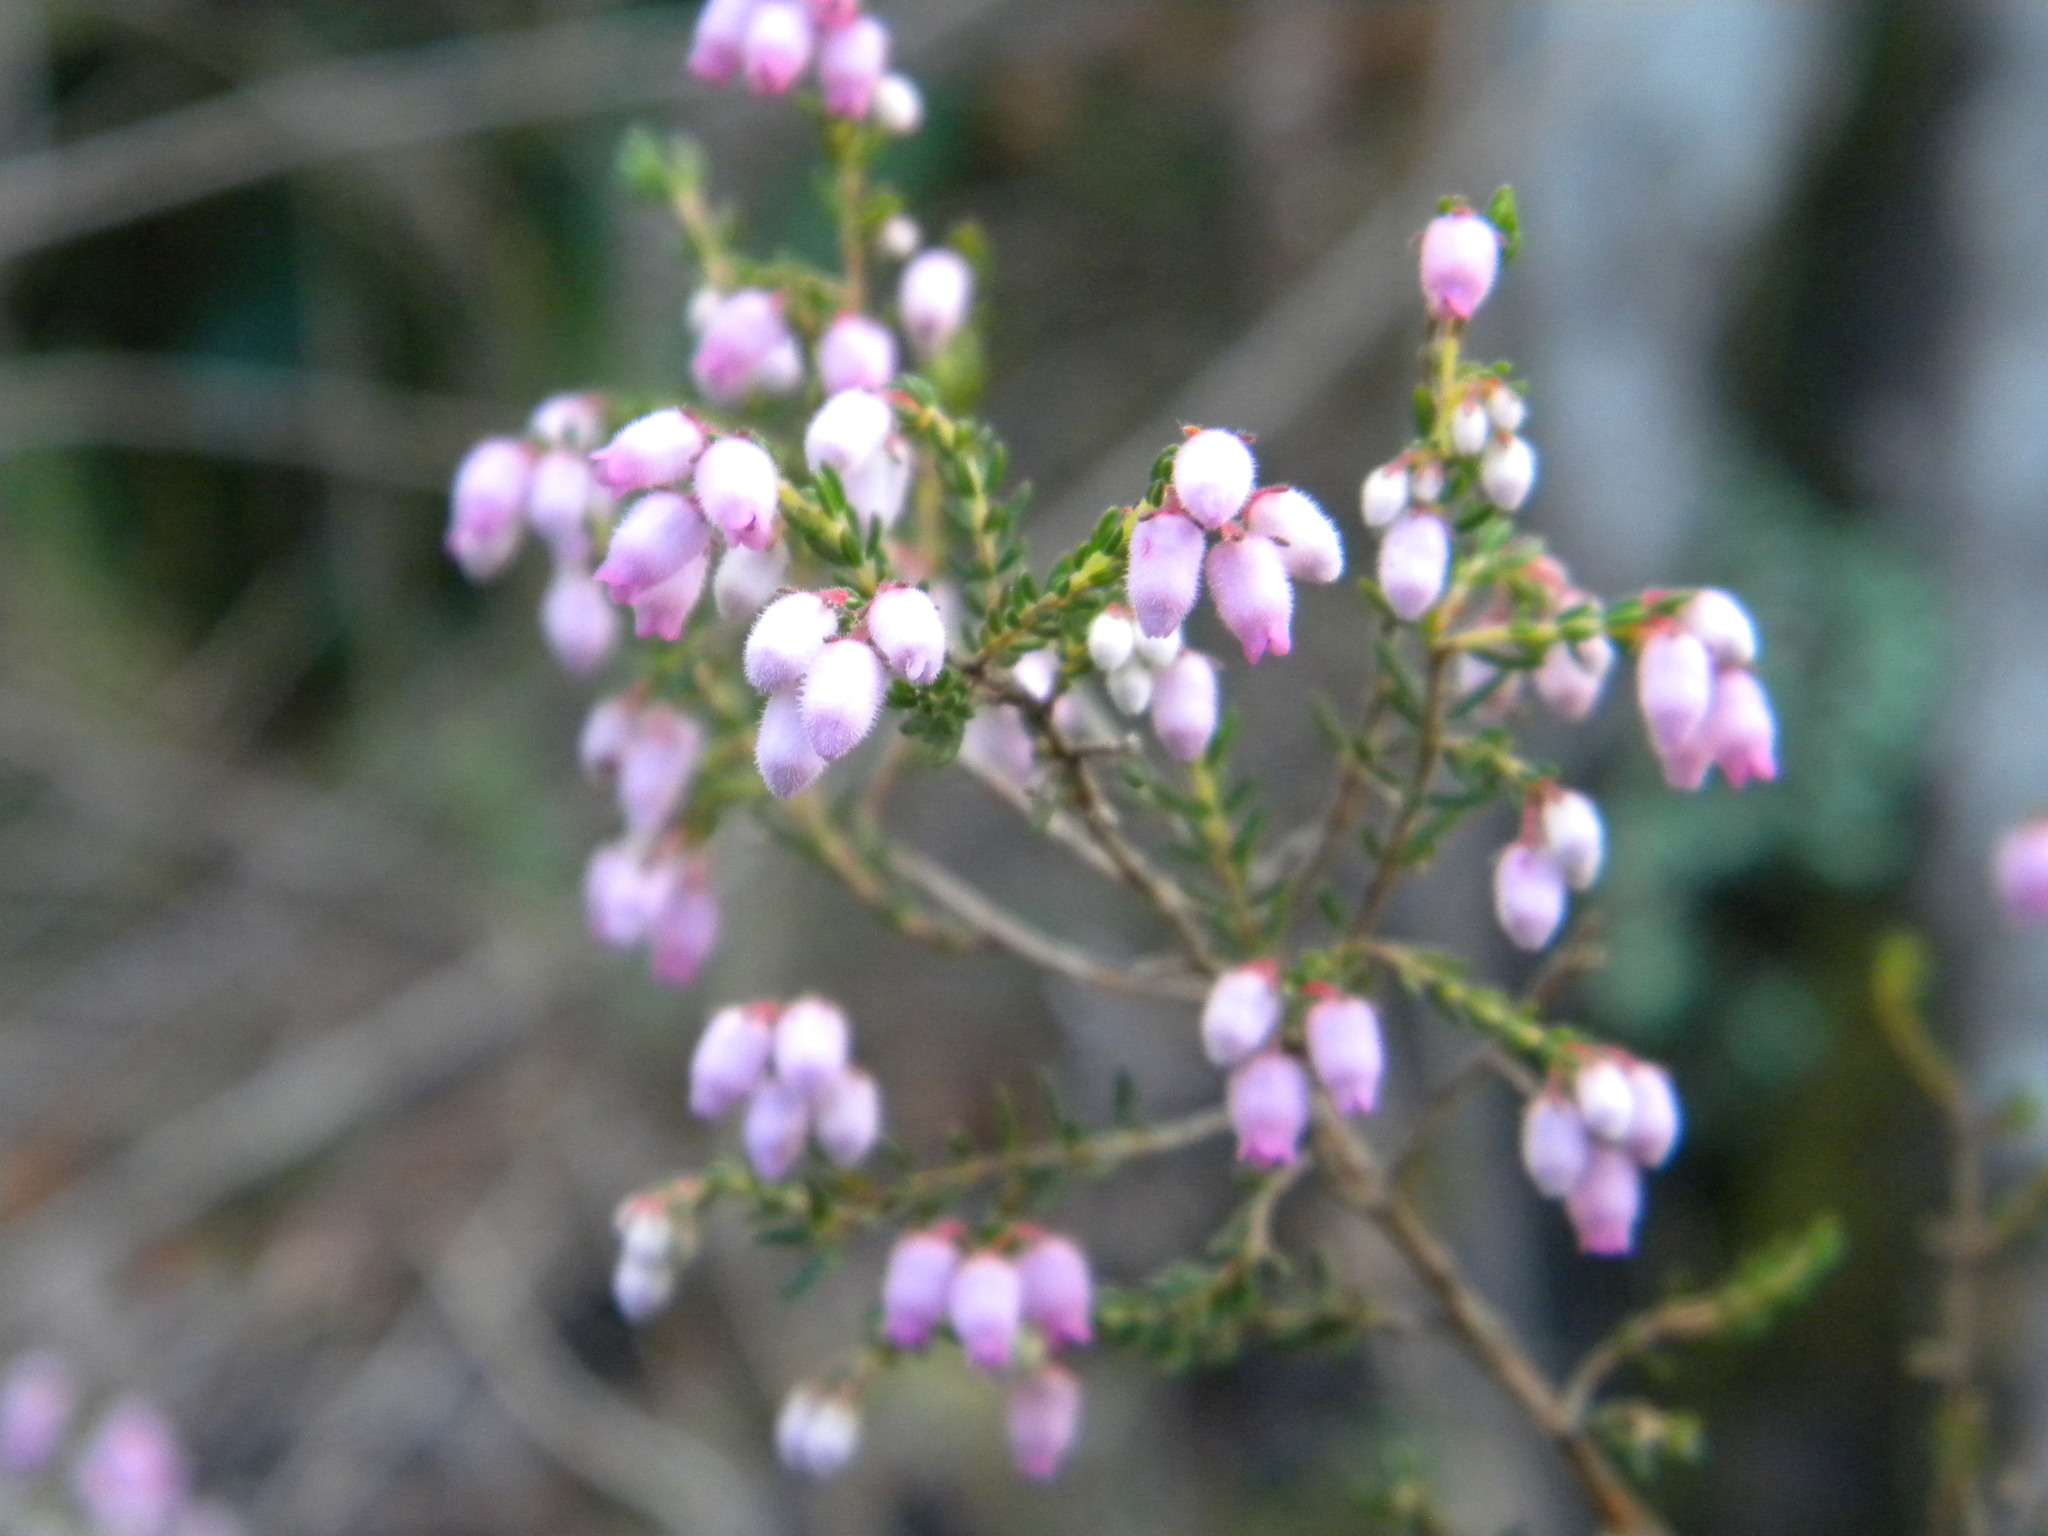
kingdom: Plantae
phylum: Tracheophyta
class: Magnoliopsida
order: Ericales
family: Ericaceae
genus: Erica
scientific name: Erica hirtiflora
